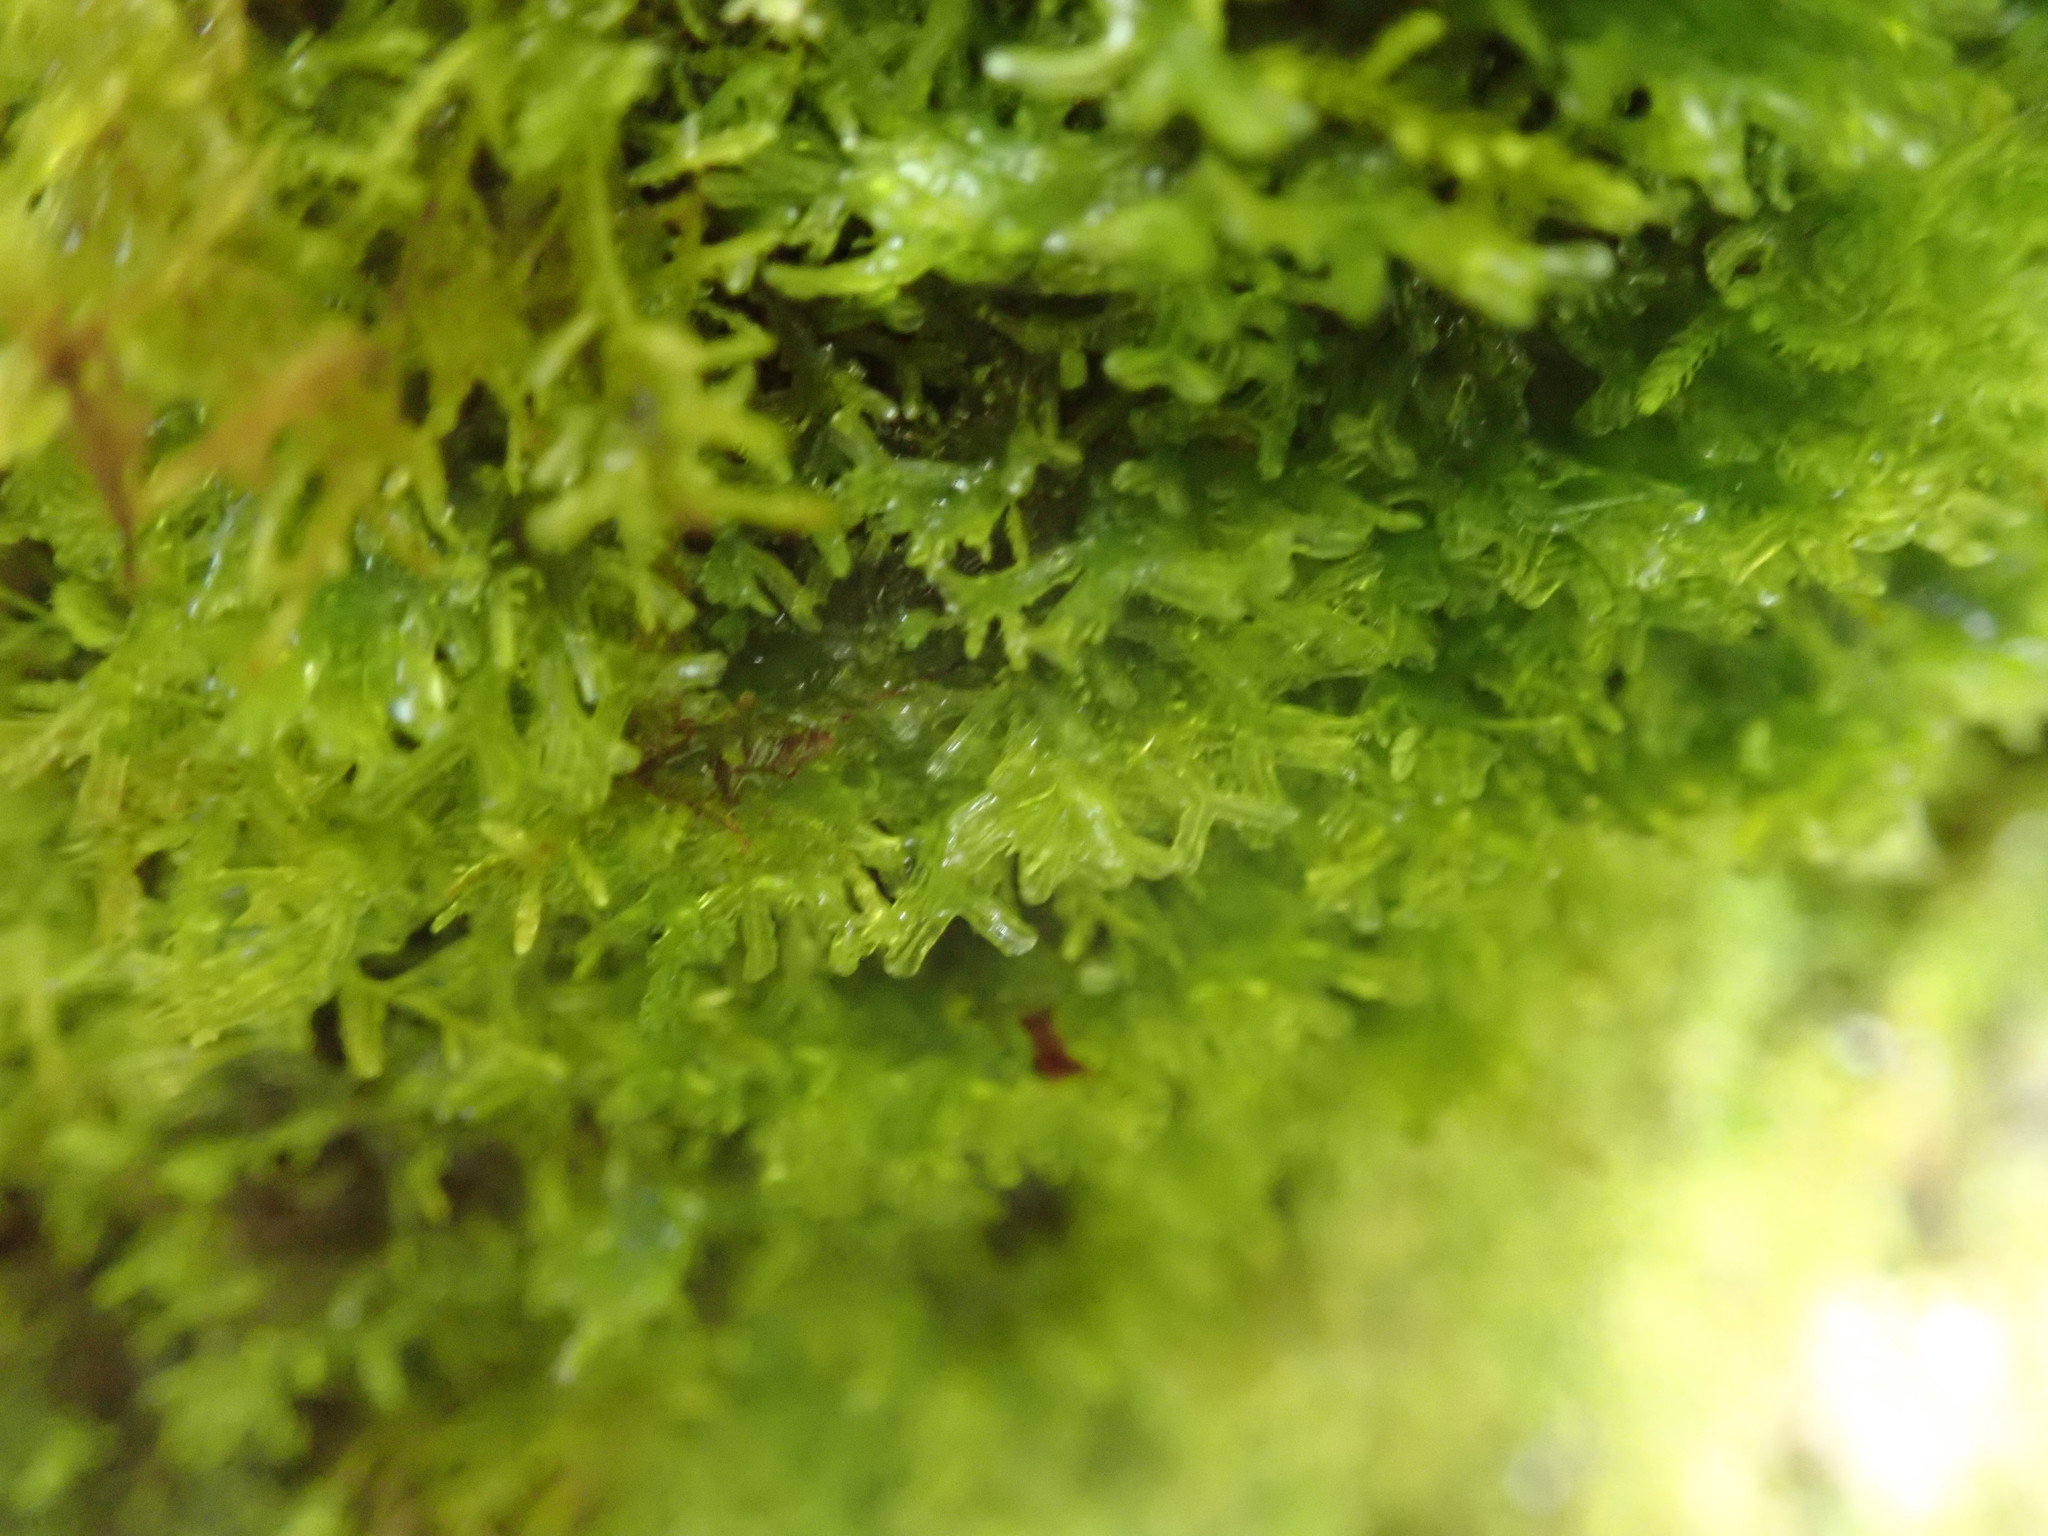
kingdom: Plantae
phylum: Marchantiophyta
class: Jungermanniopsida
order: Metzgeriales
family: Metzgeriaceae
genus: Metzgeria
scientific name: Metzgeria conjugata
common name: Rock veilwort
